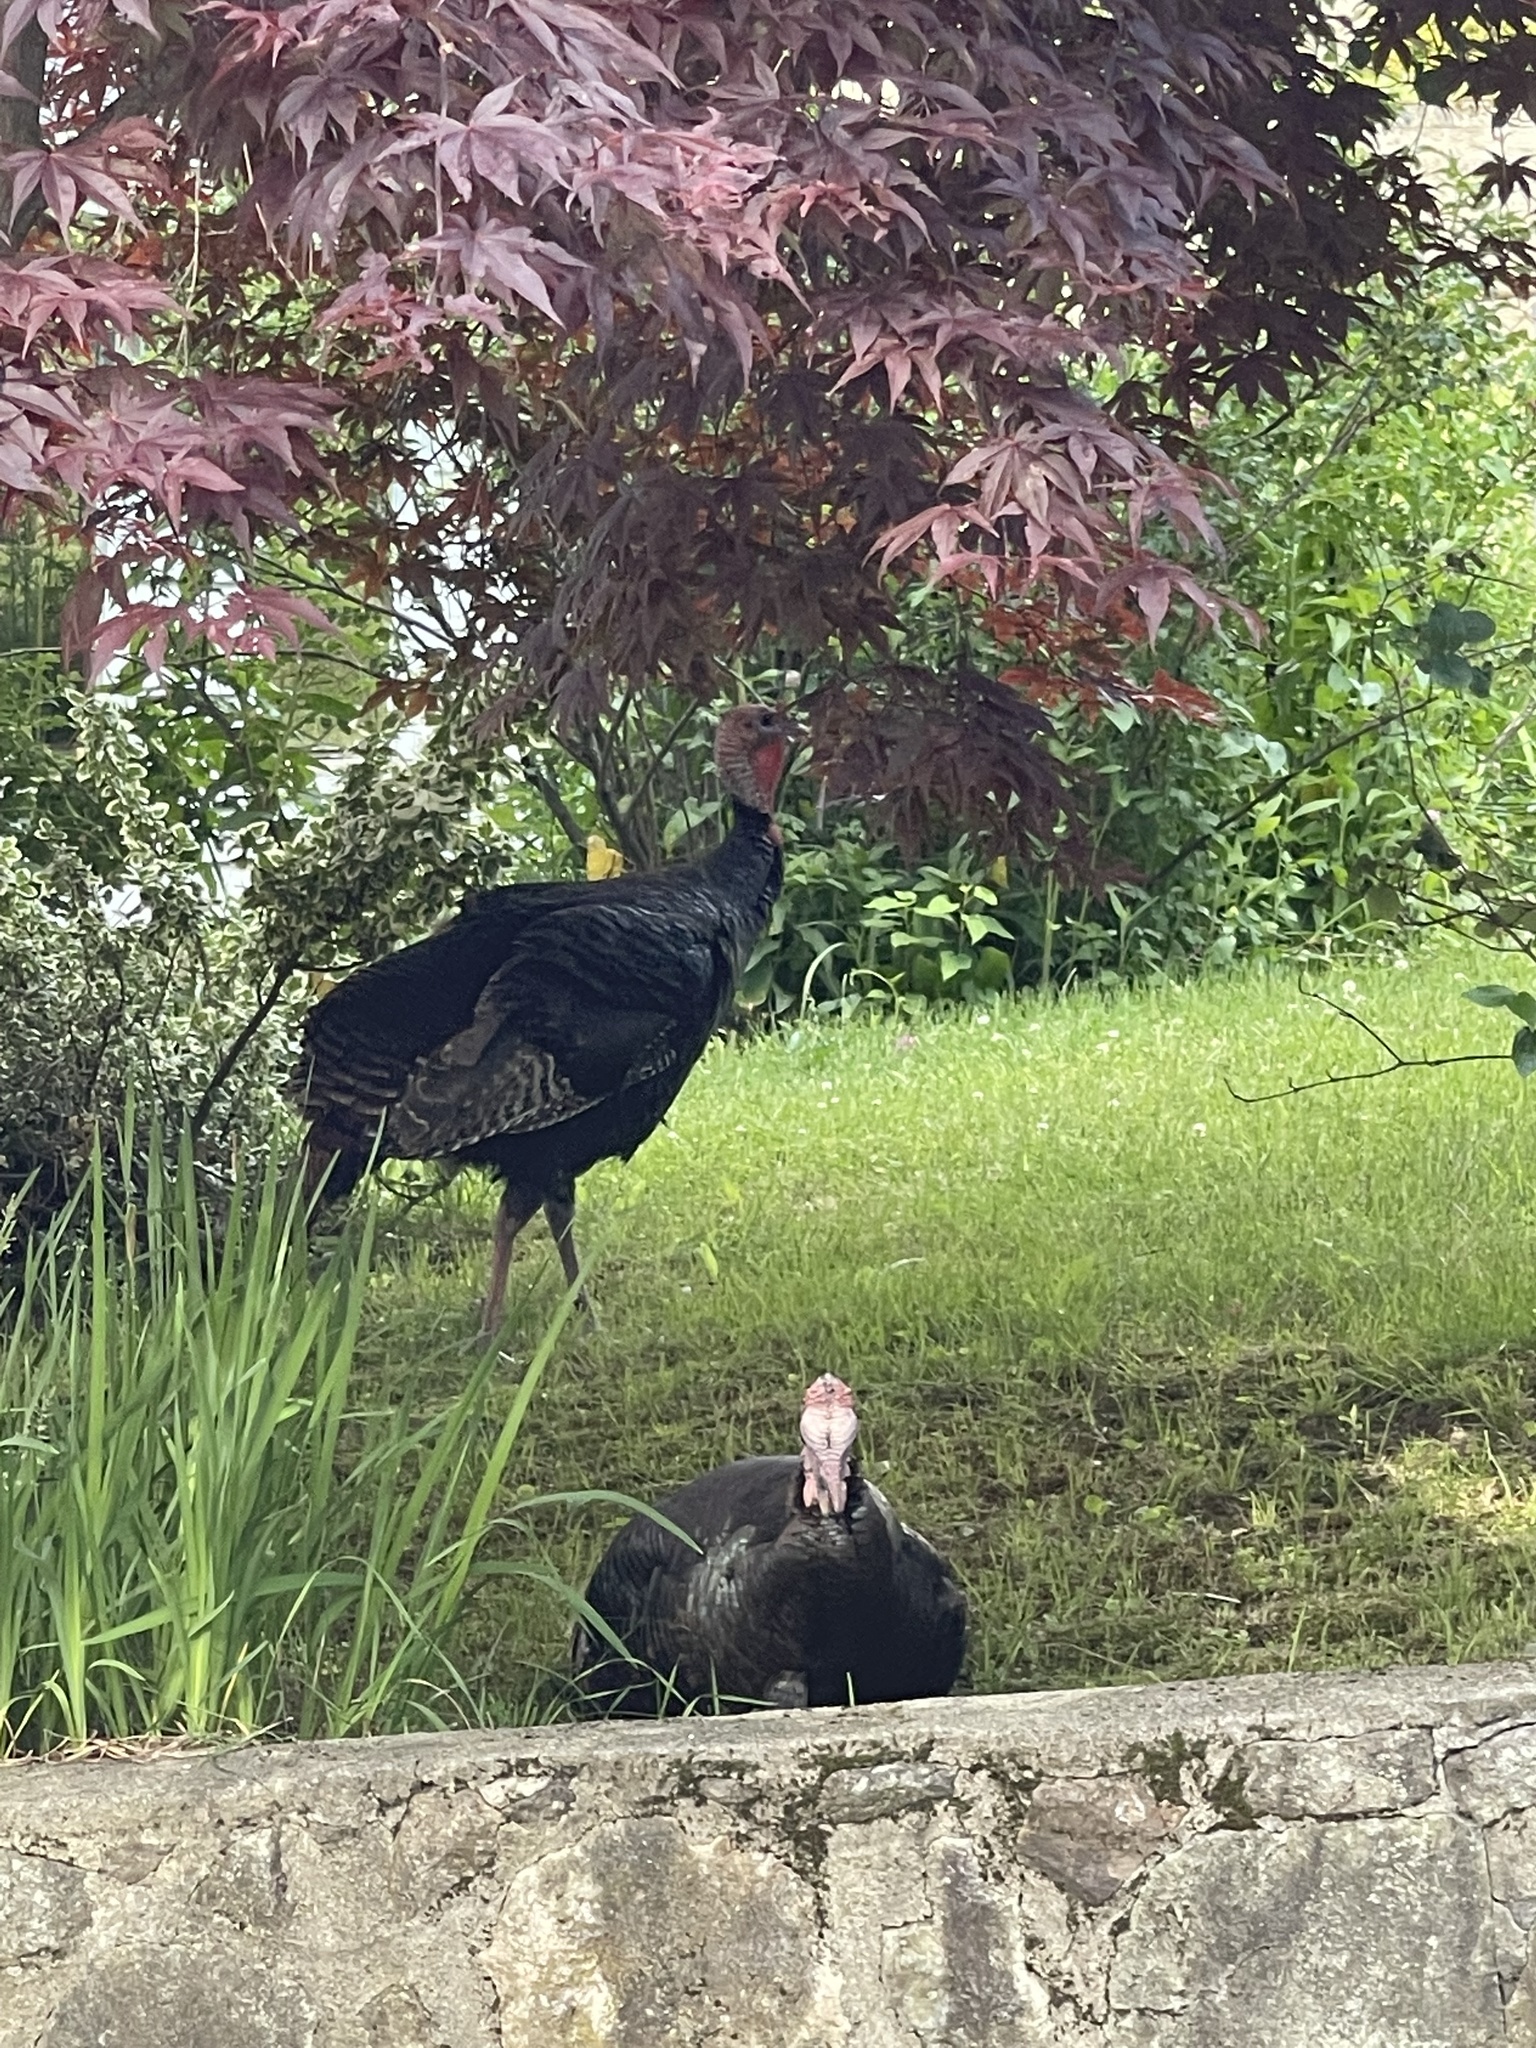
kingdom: Animalia
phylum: Chordata
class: Aves
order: Galliformes
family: Phasianidae
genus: Meleagris
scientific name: Meleagris gallopavo
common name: Wild turkey
